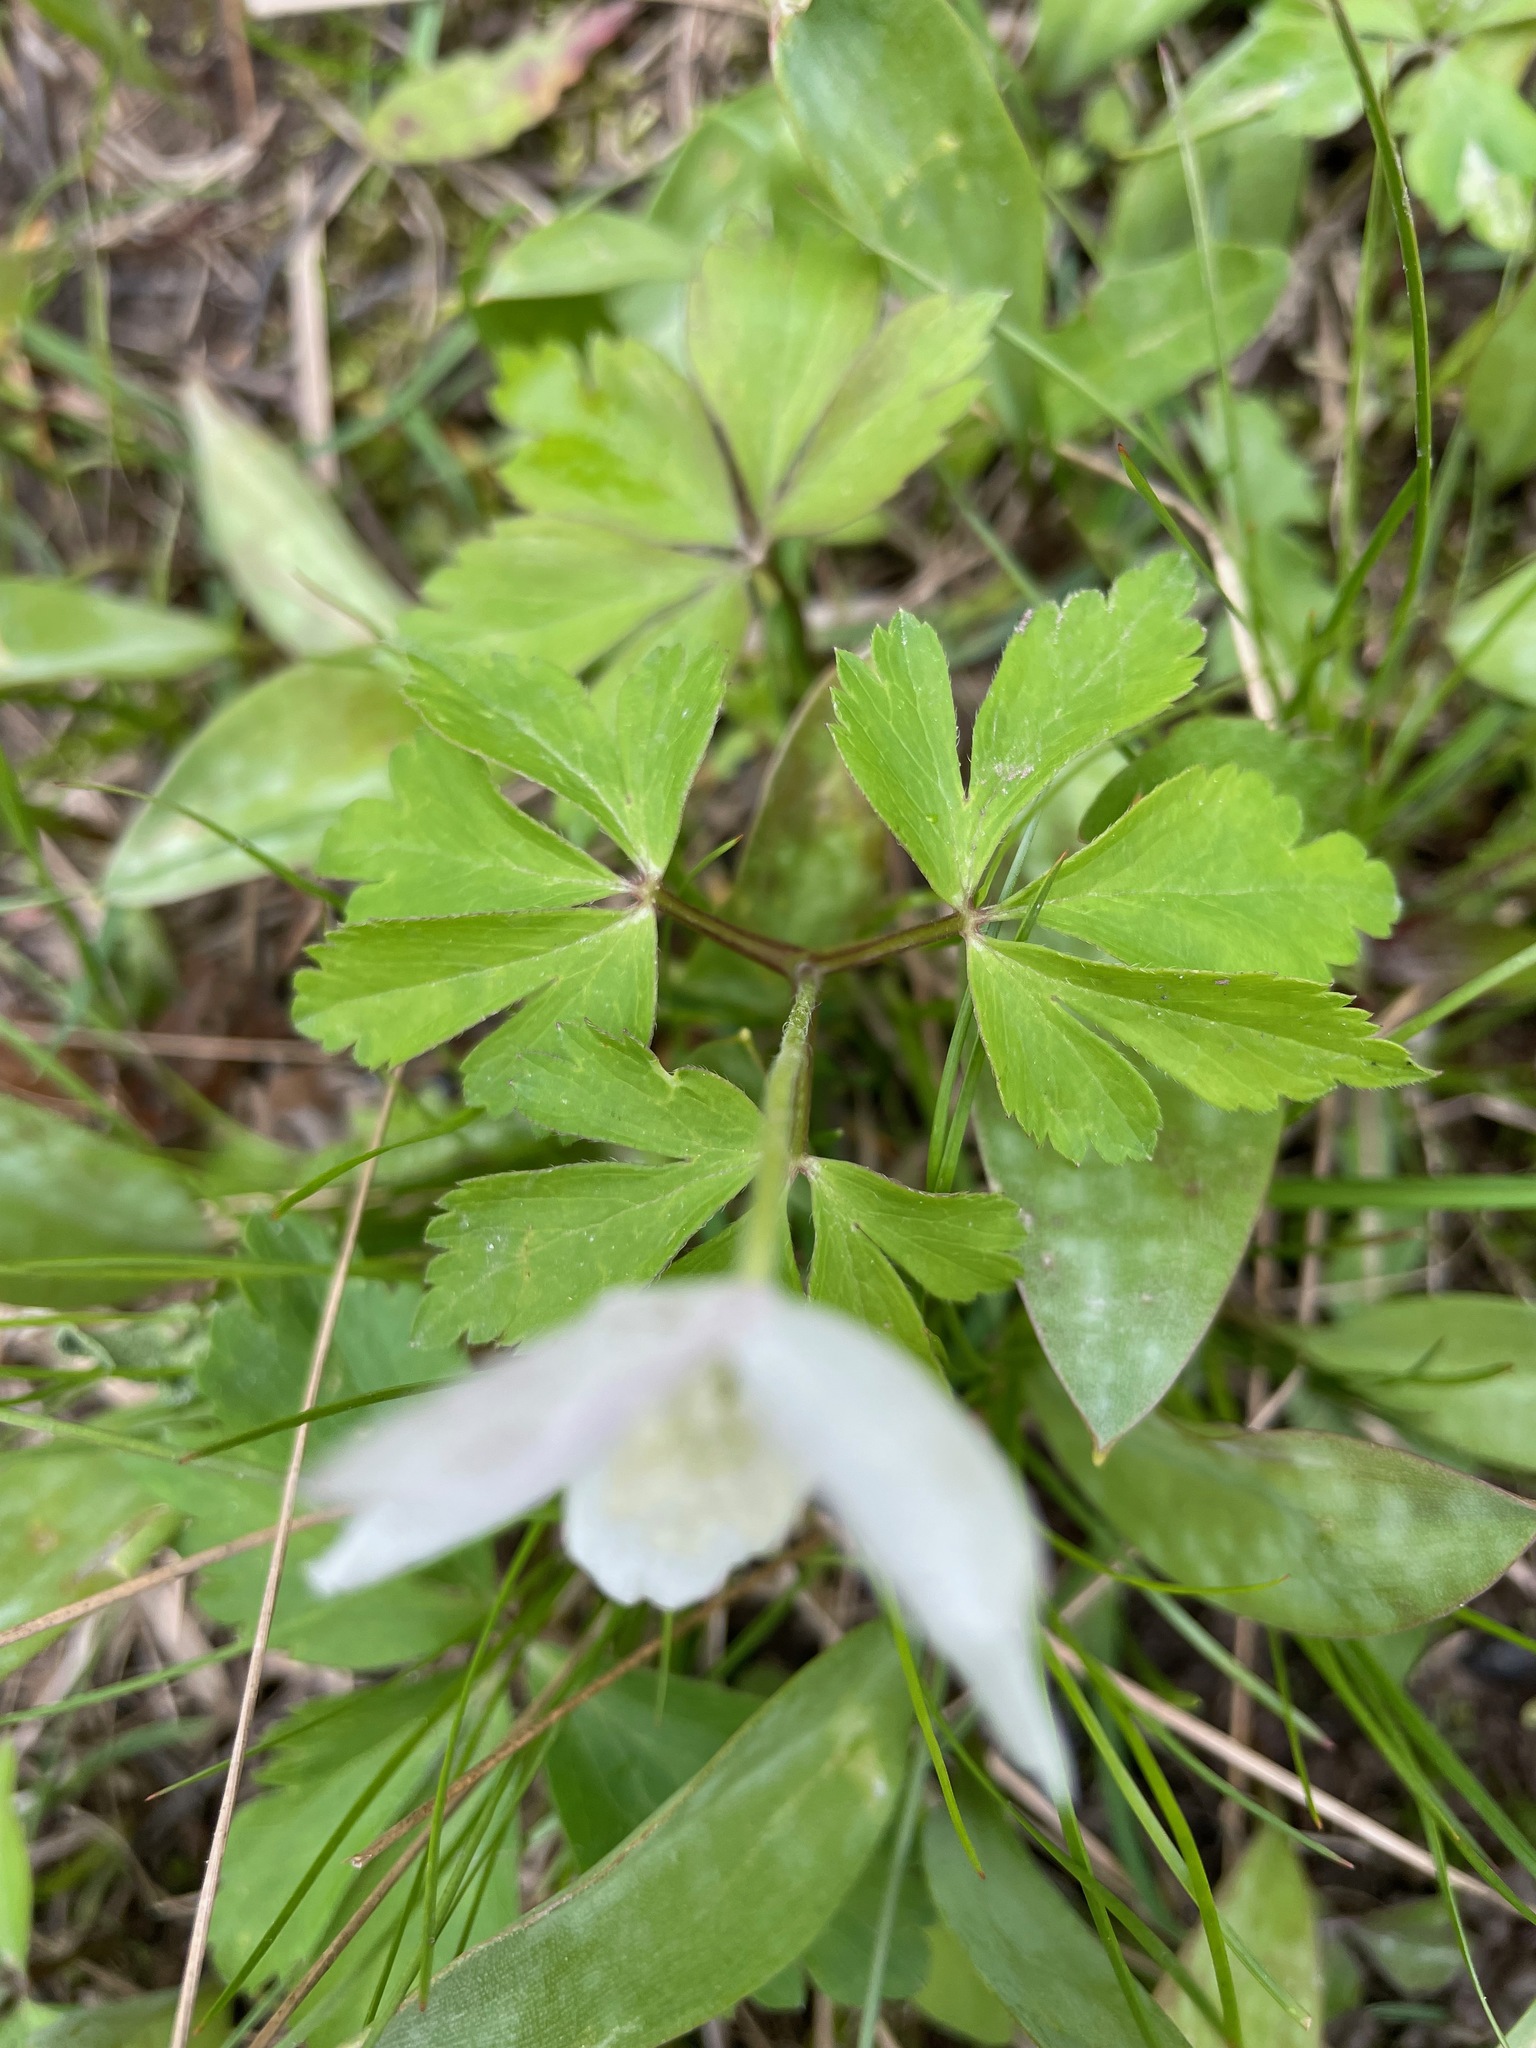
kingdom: Plantae
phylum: Tracheophyta
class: Magnoliopsida
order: Ranunculales
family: Ranunculaceae
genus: Anemone
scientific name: Anemone quinquefolia
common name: Wood anemone
